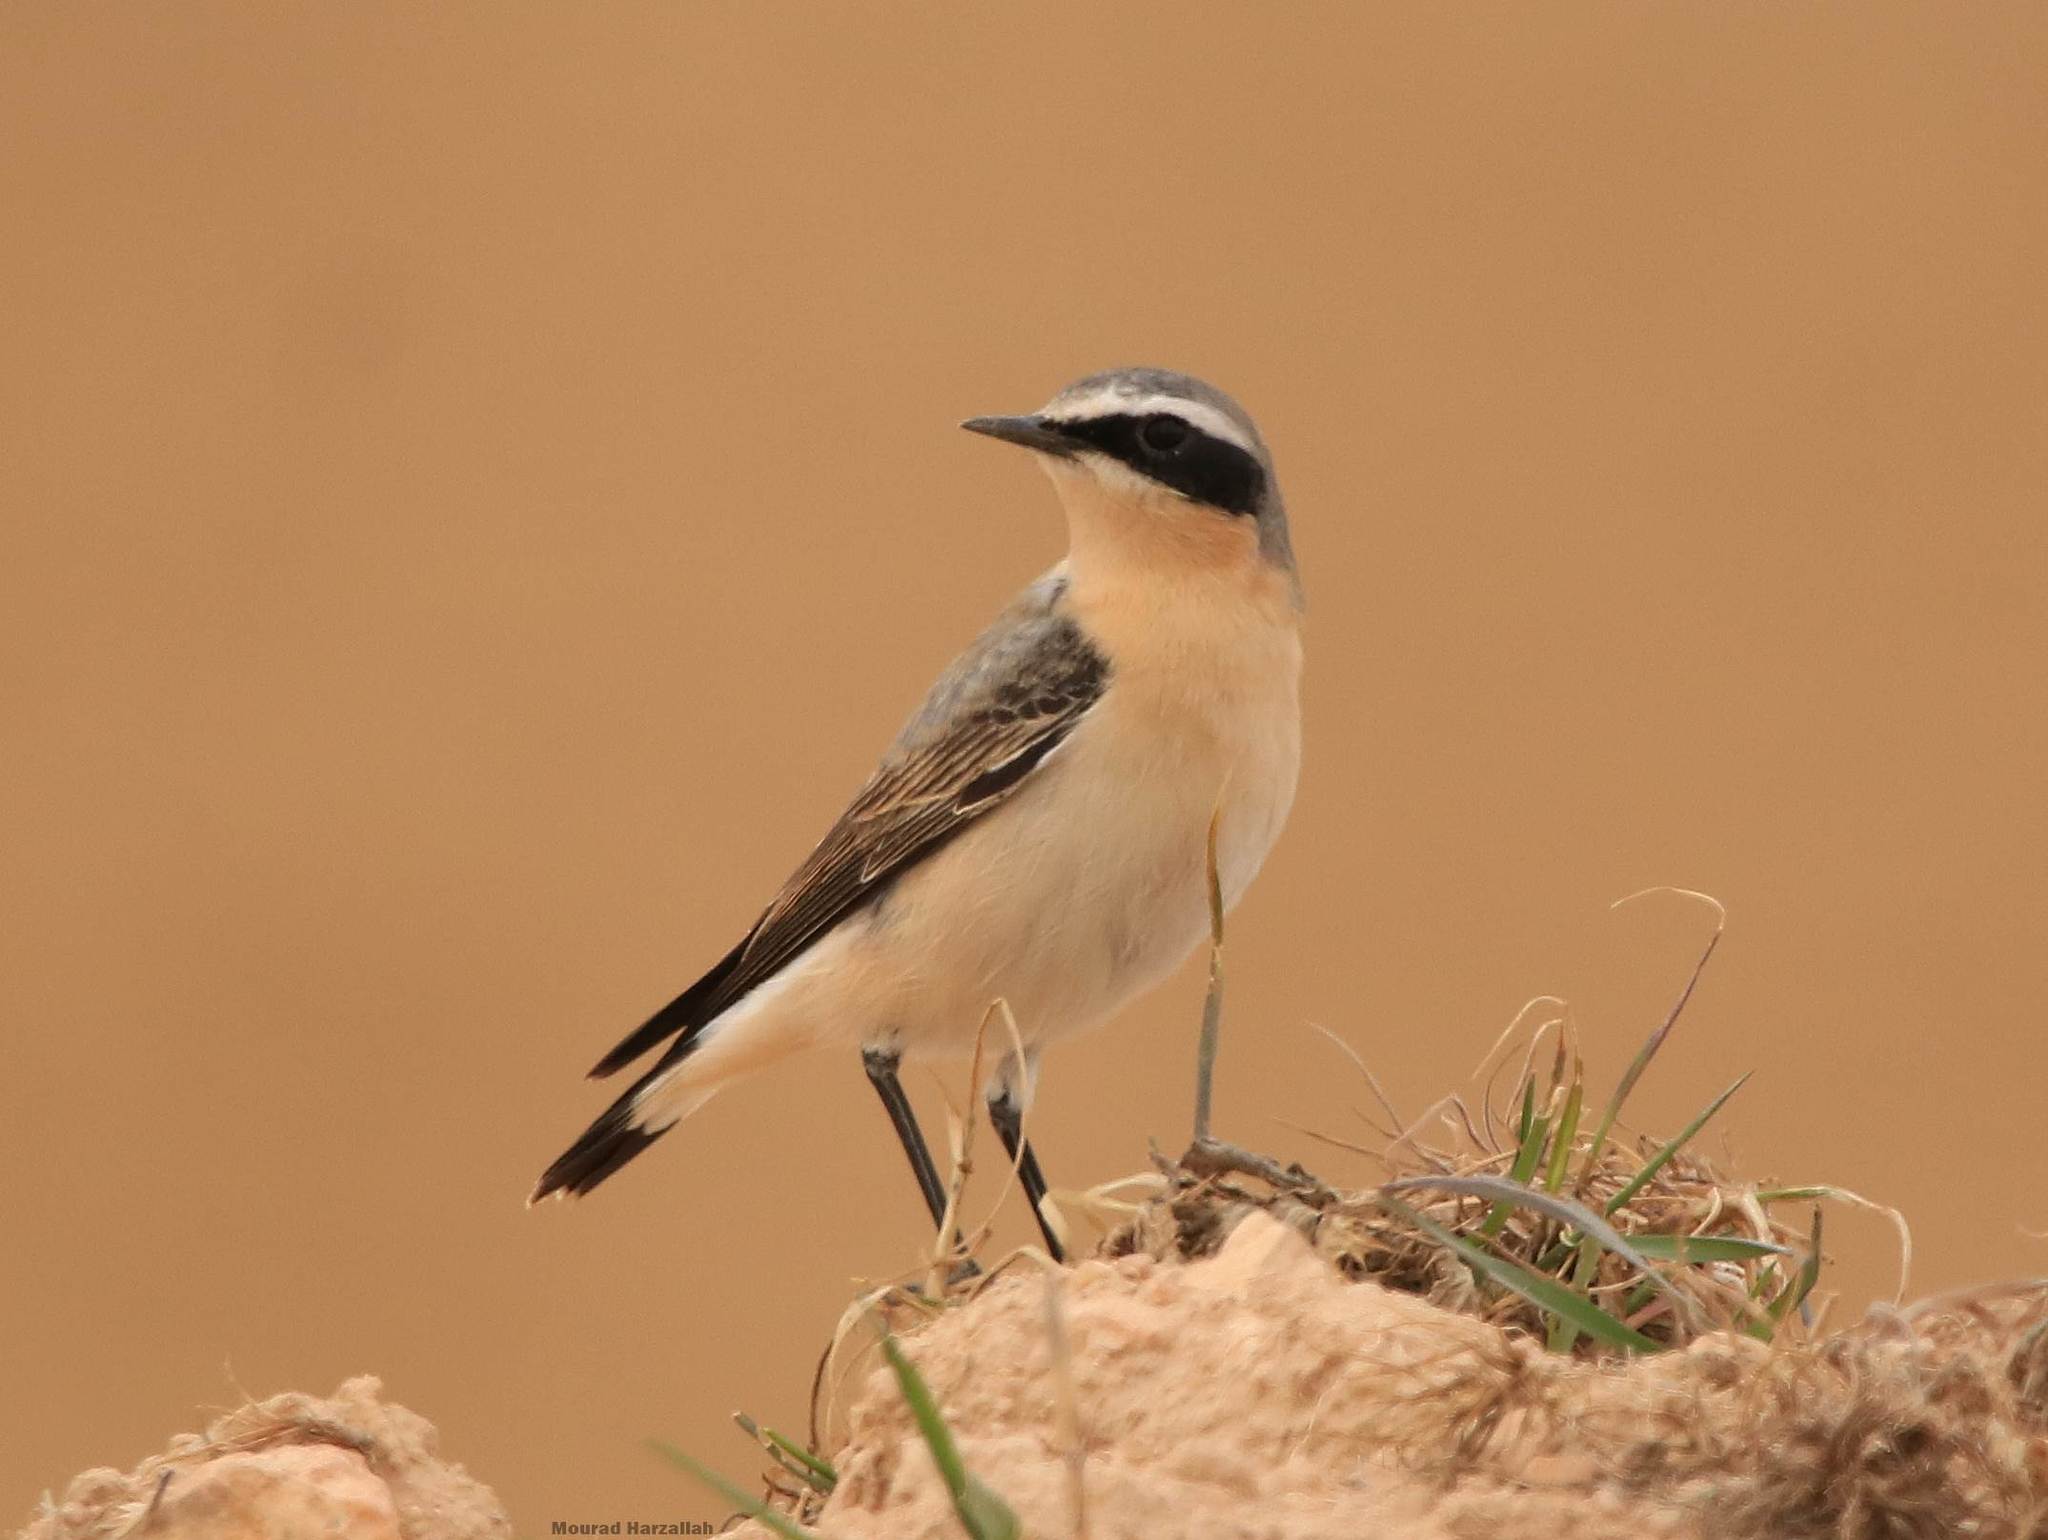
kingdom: Animalia
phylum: Chordata
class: Aves
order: Passeriformes
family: Muscicapidae
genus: Oenanthe
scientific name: Oenanthe oenanthe
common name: Northern wheatear
